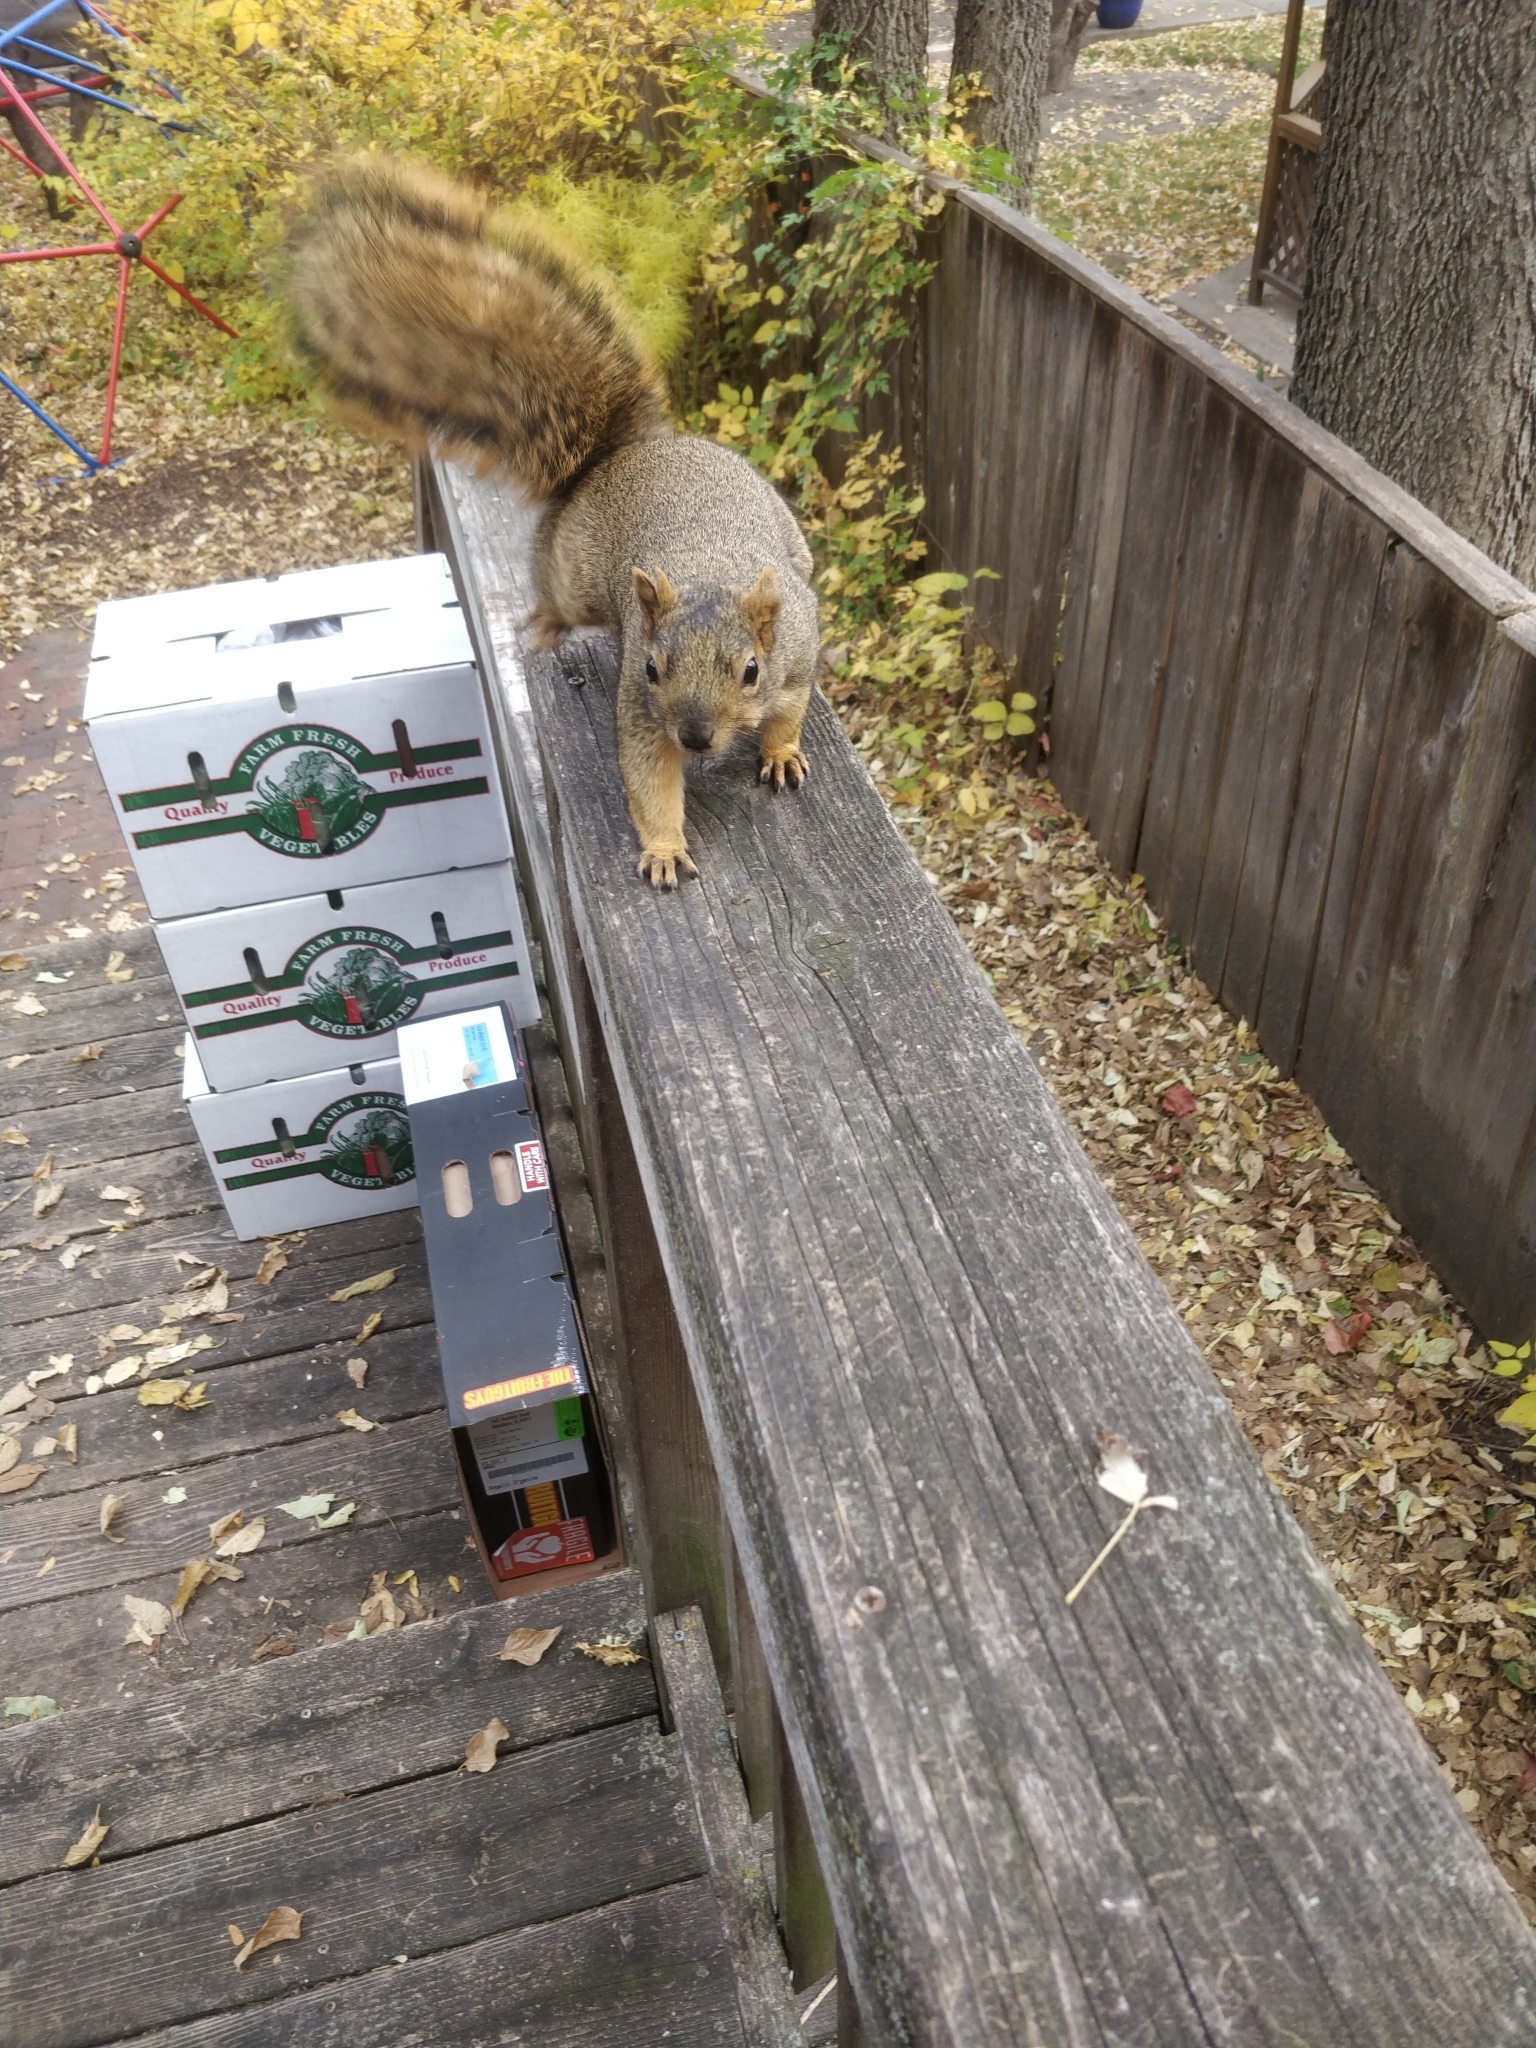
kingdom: Animalia
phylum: Chordata
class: Mammalia
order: Rodentia
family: Sciuridae
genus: Sciurus
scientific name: Sciurus niger
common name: Fox squirrel
